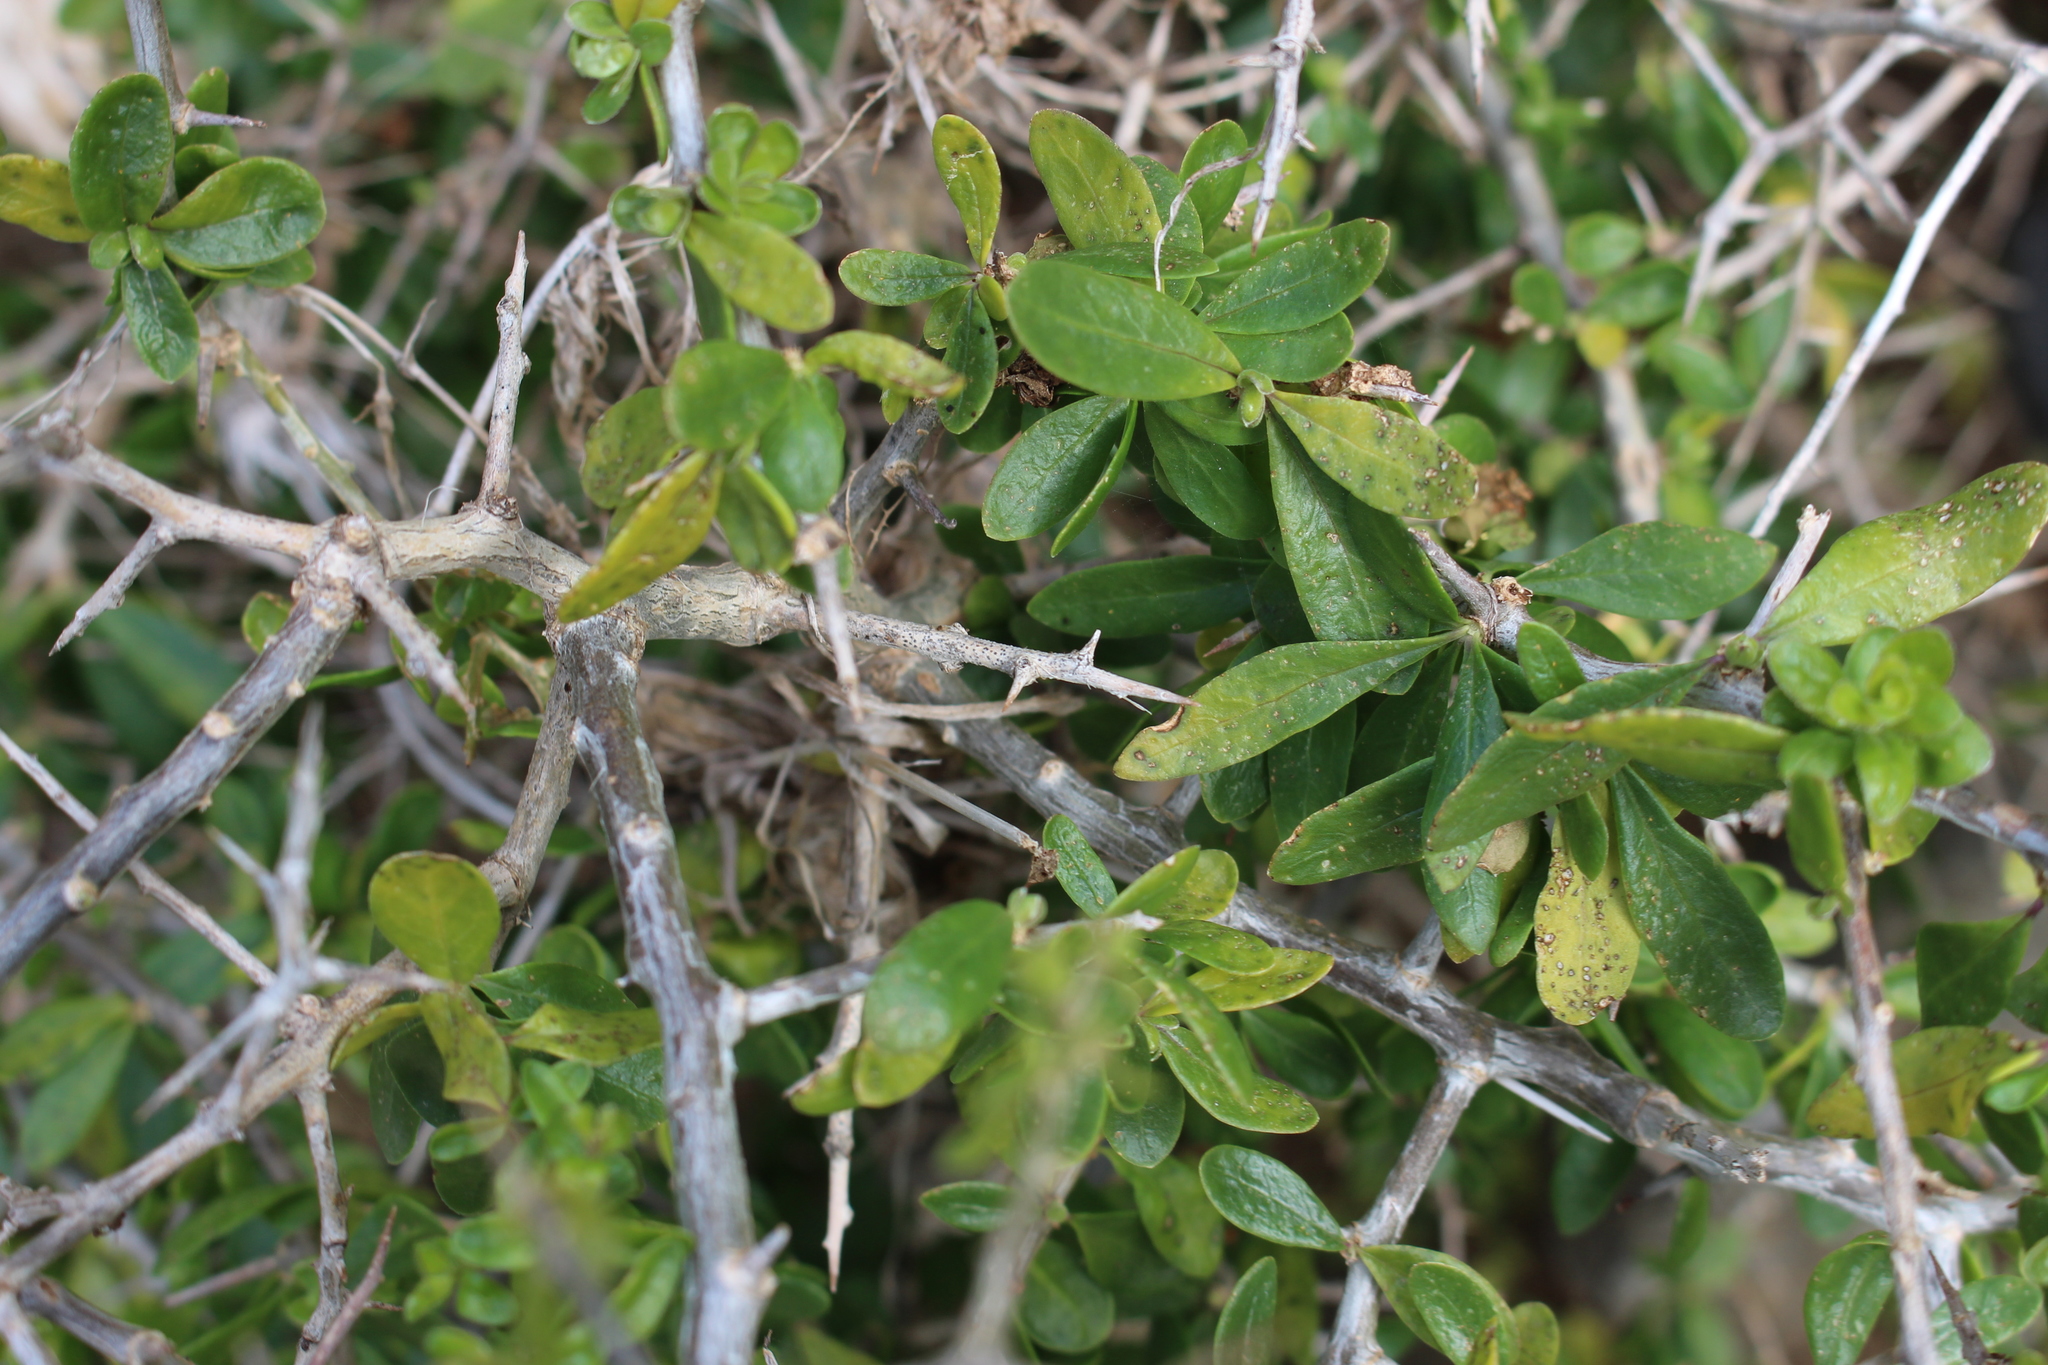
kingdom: Plantae
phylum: Tracheophyta
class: Magnoliopsida
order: Solanales
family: Solanaceae
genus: Lycium
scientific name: Lycium ferocissimum
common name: African boxthorn
